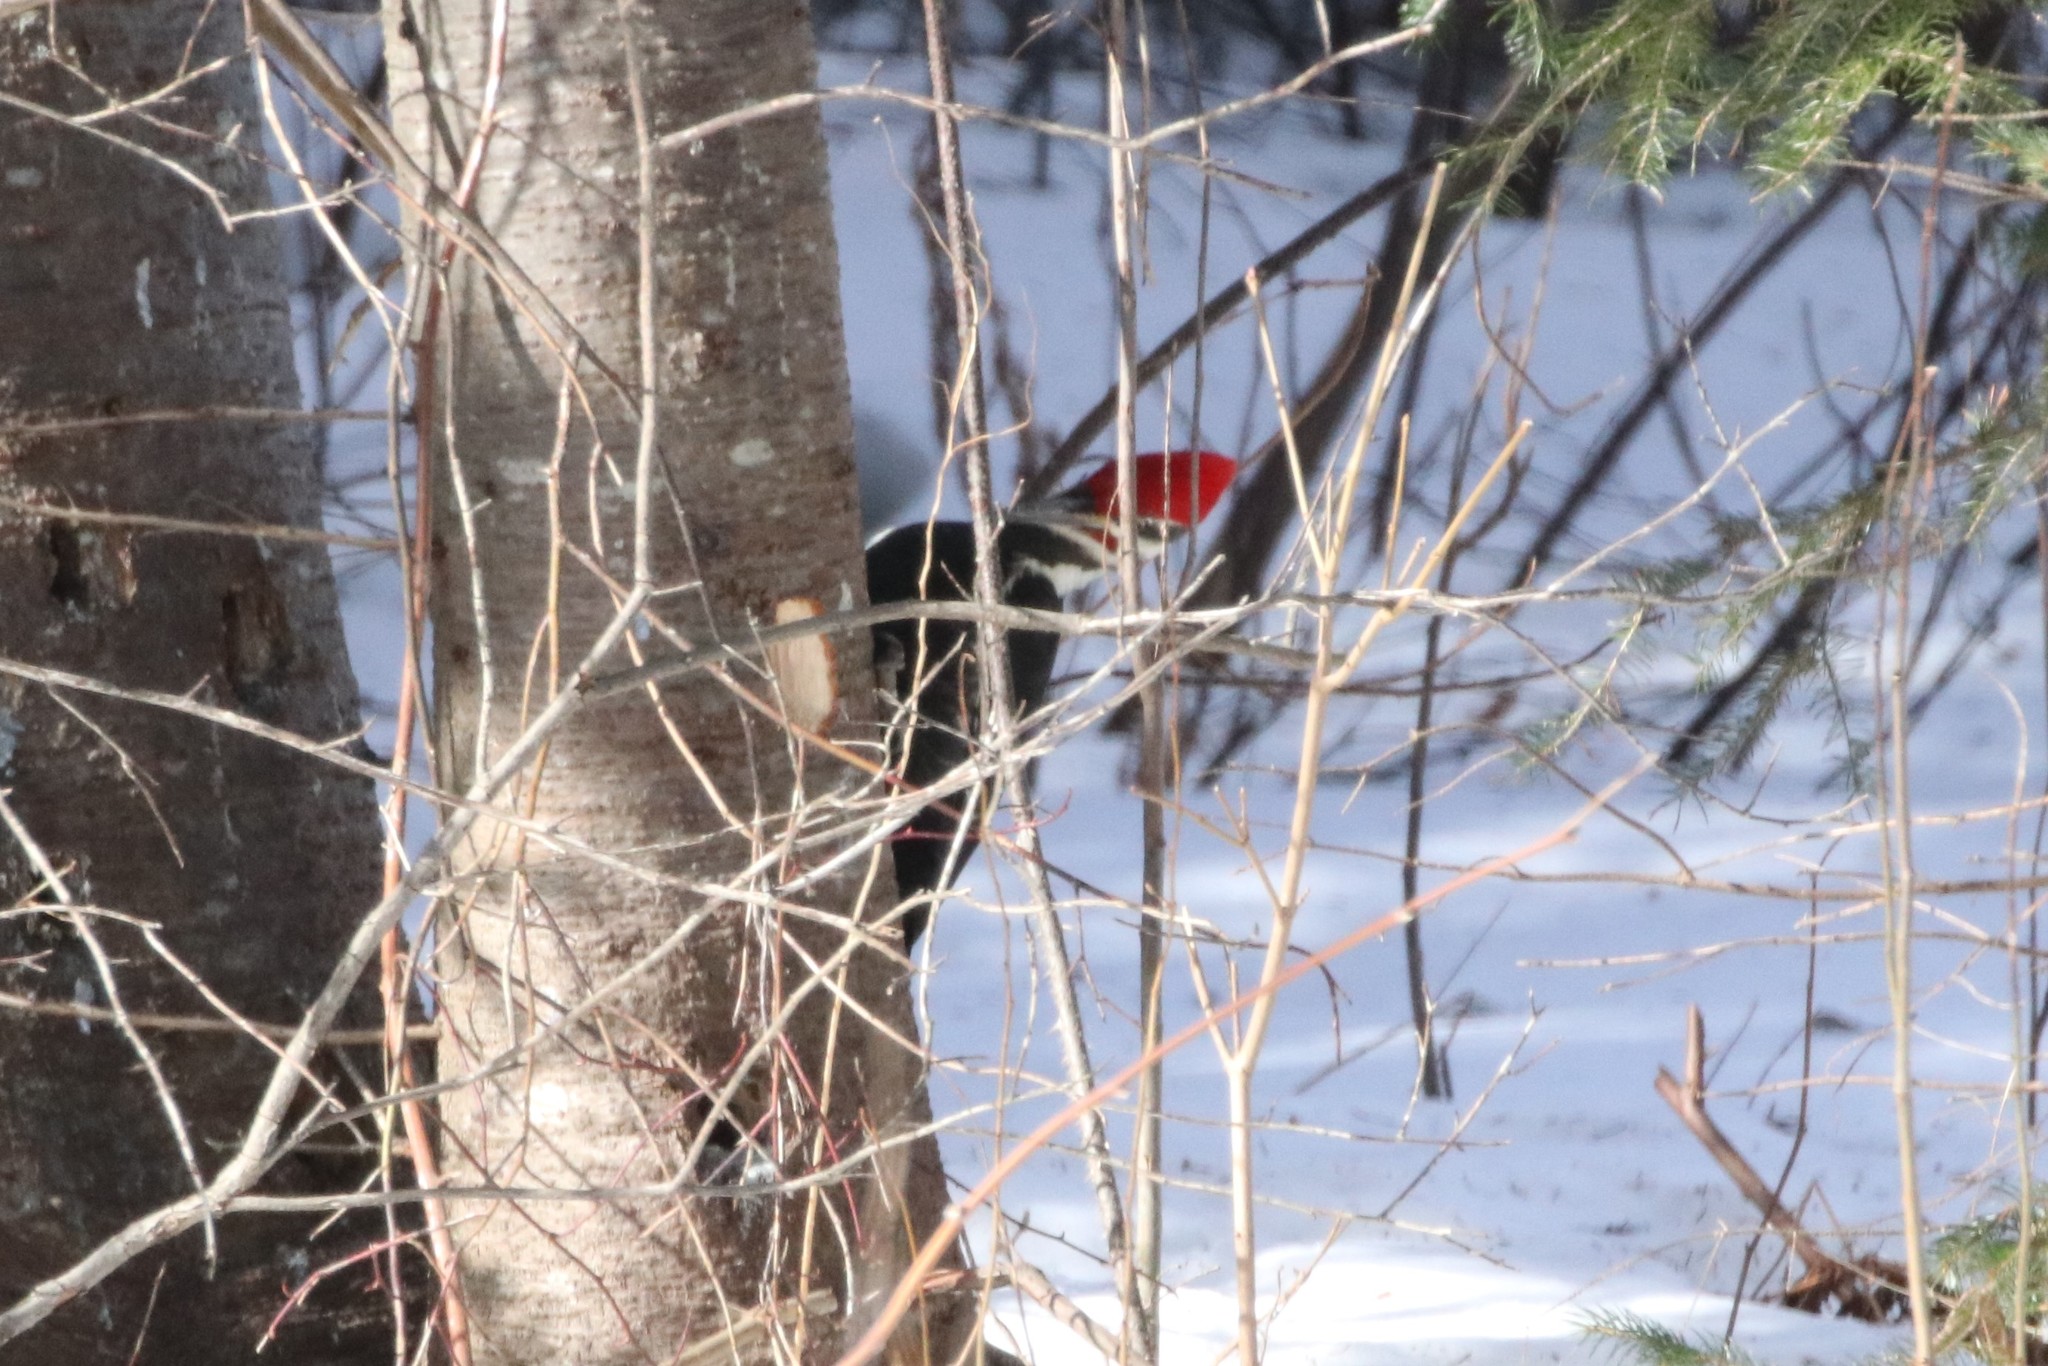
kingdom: Animalia
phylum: Chordata
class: Aves
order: Piciformes
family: Picidae
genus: Dryocopus
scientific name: Dryocopus pileatus
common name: Pileated woodpecker
